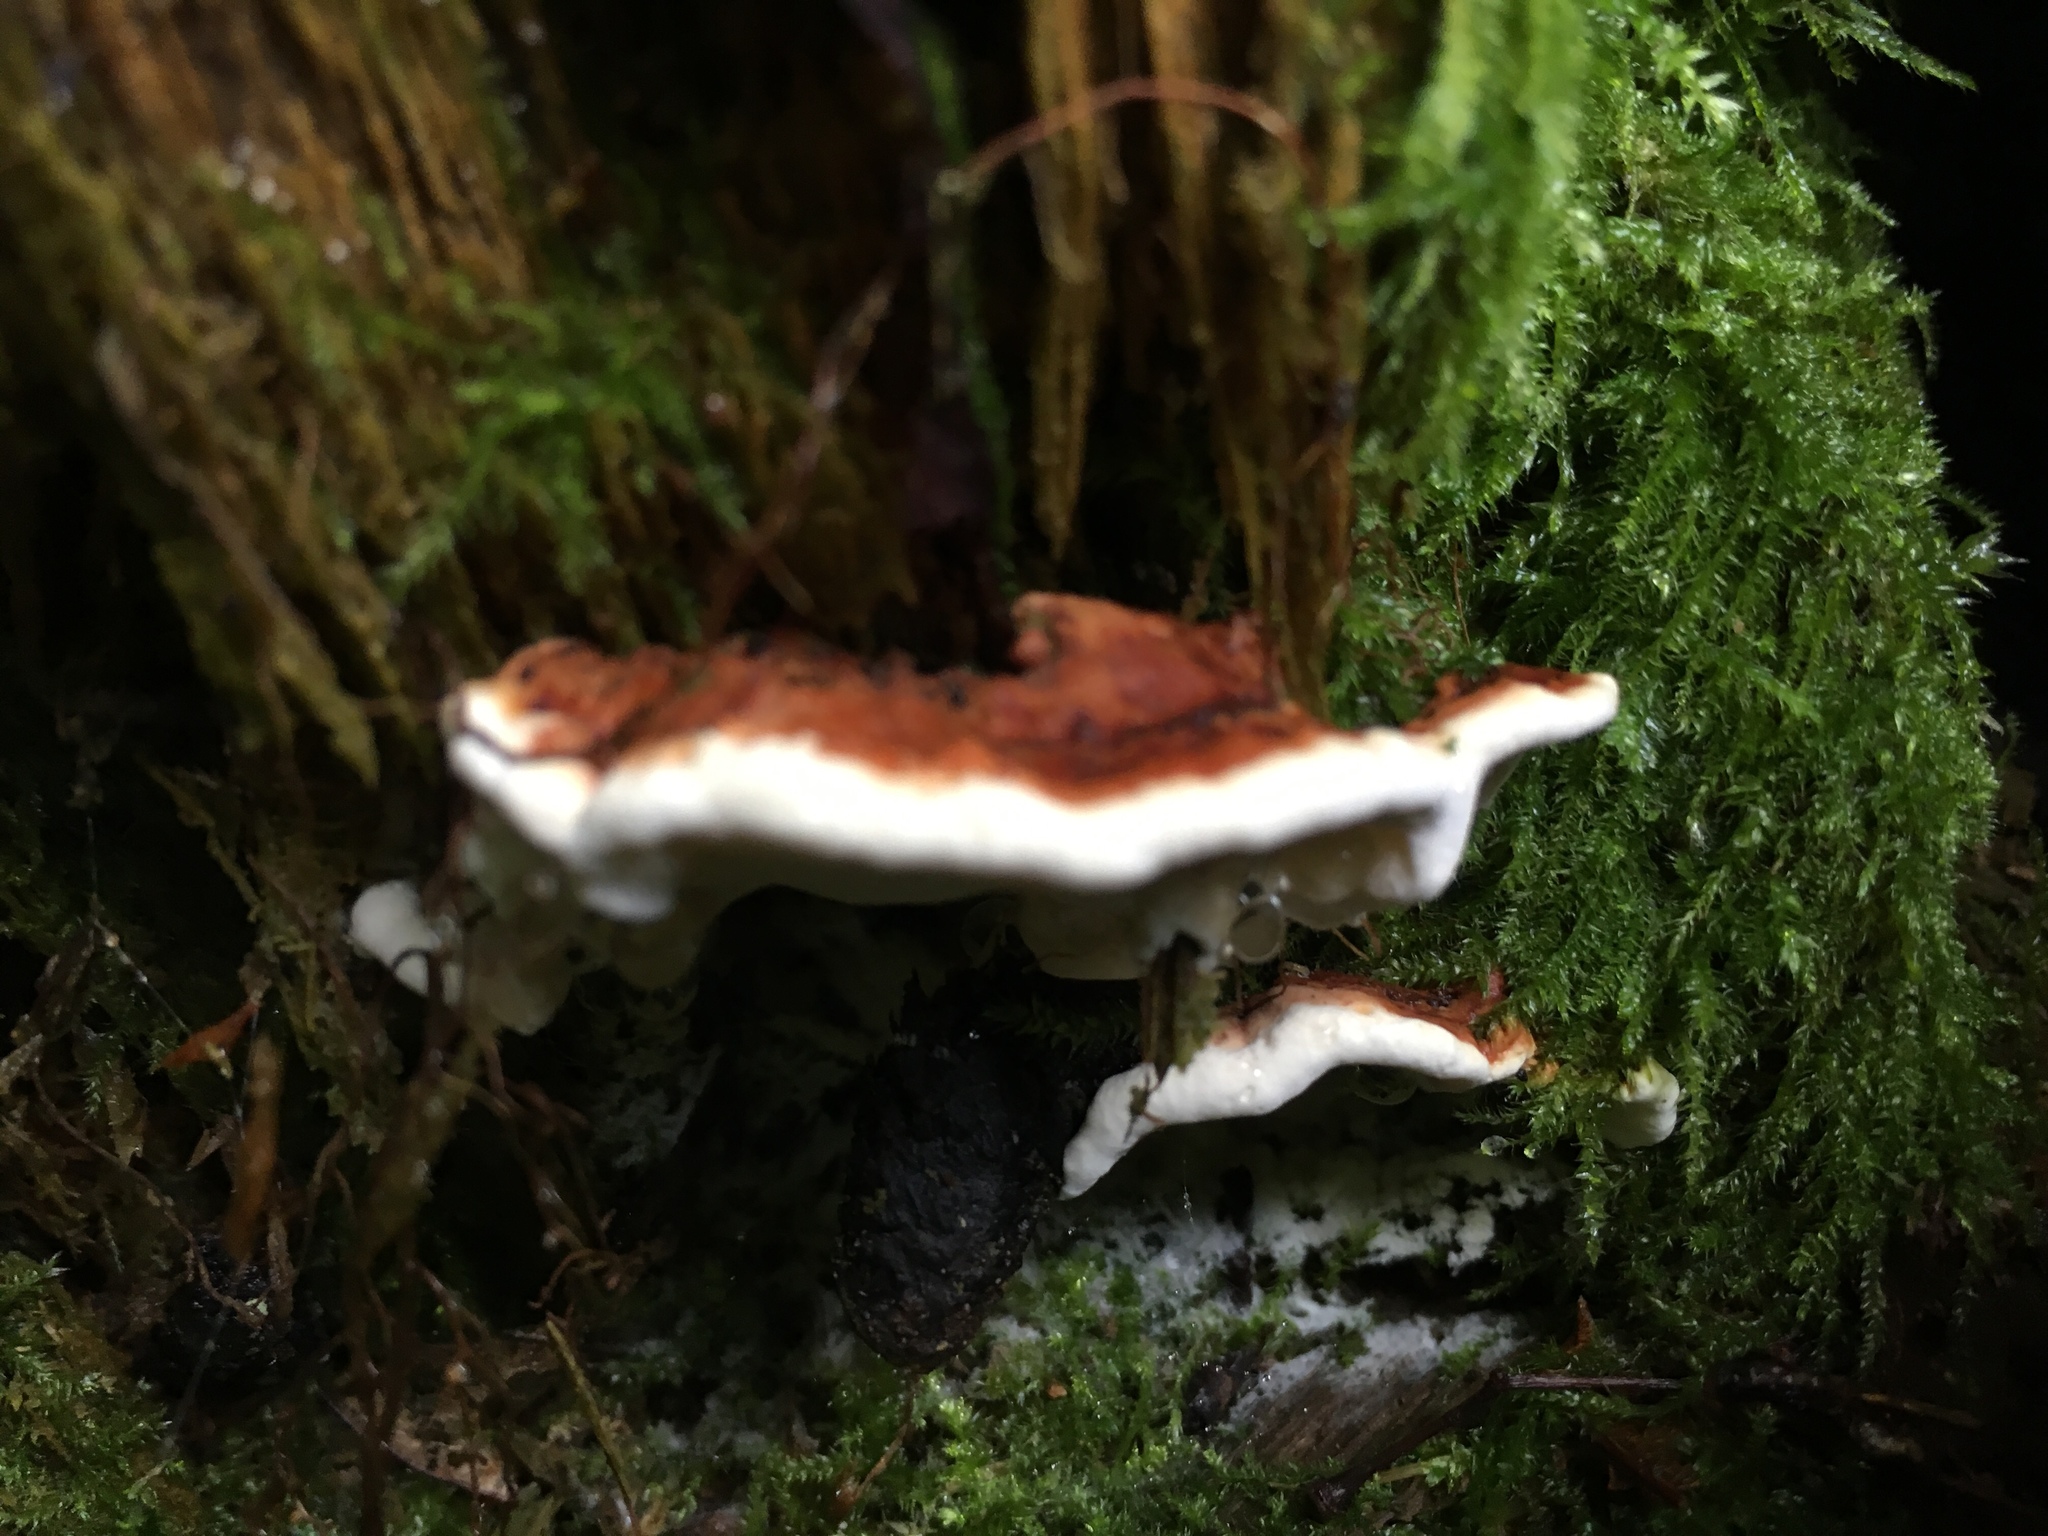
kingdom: Fungi
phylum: Basidiomycota
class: Agaricomycetes
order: Russulales
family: Bondarzewiaceae
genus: Heterobasidion
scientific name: Heterobasidion annosum
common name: Root rot
